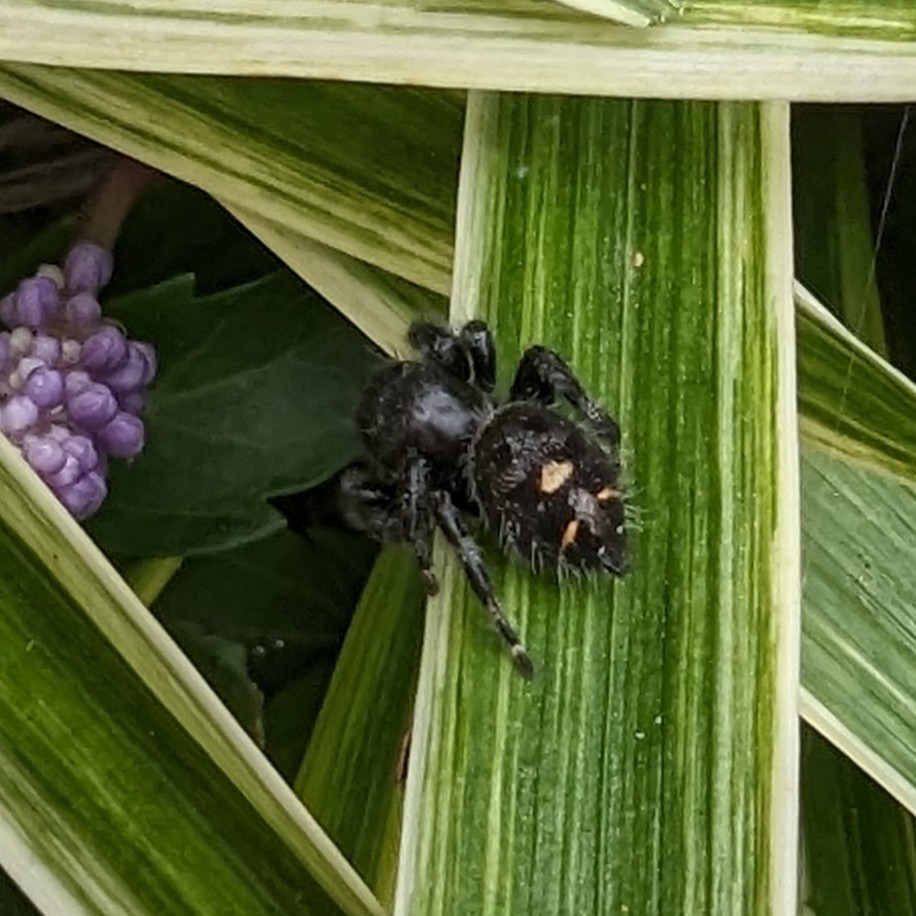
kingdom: Animalia
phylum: Arthropoda
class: Arachnida
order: Araneae
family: Salticidae
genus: Phidippus
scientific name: Phidippus audax
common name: Bold jumper
